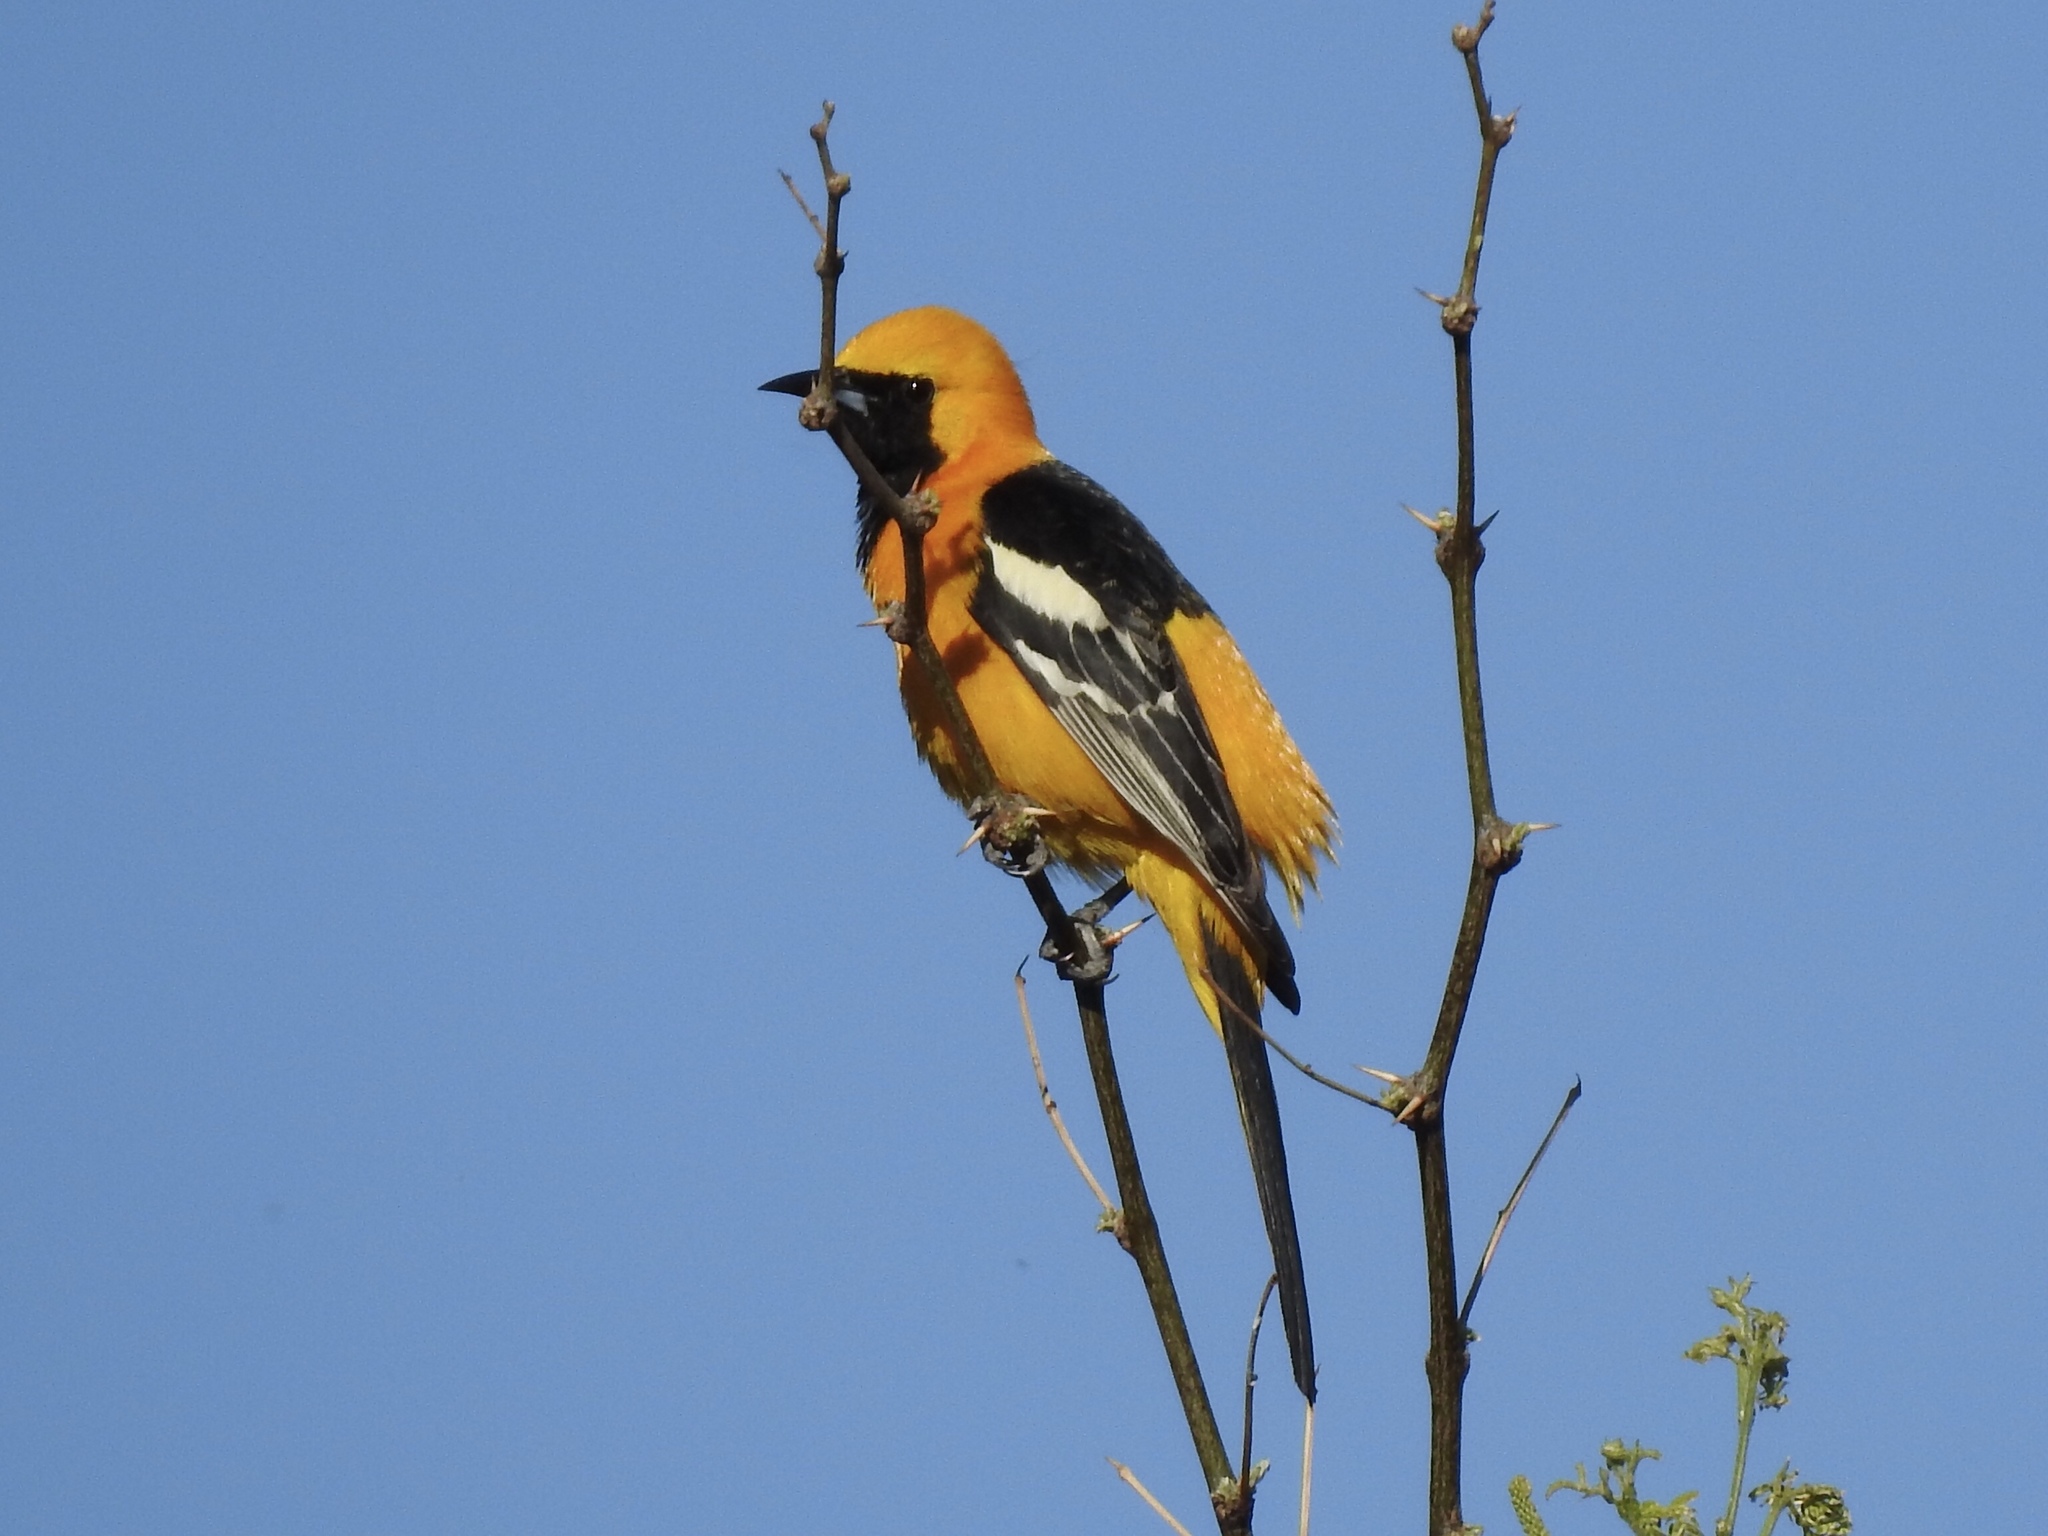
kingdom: Animalia
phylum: Chordata
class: Aves
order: Passeriformes
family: Icteridae
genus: Icterus
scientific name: Icterus cucullatus
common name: Hooded oriole
